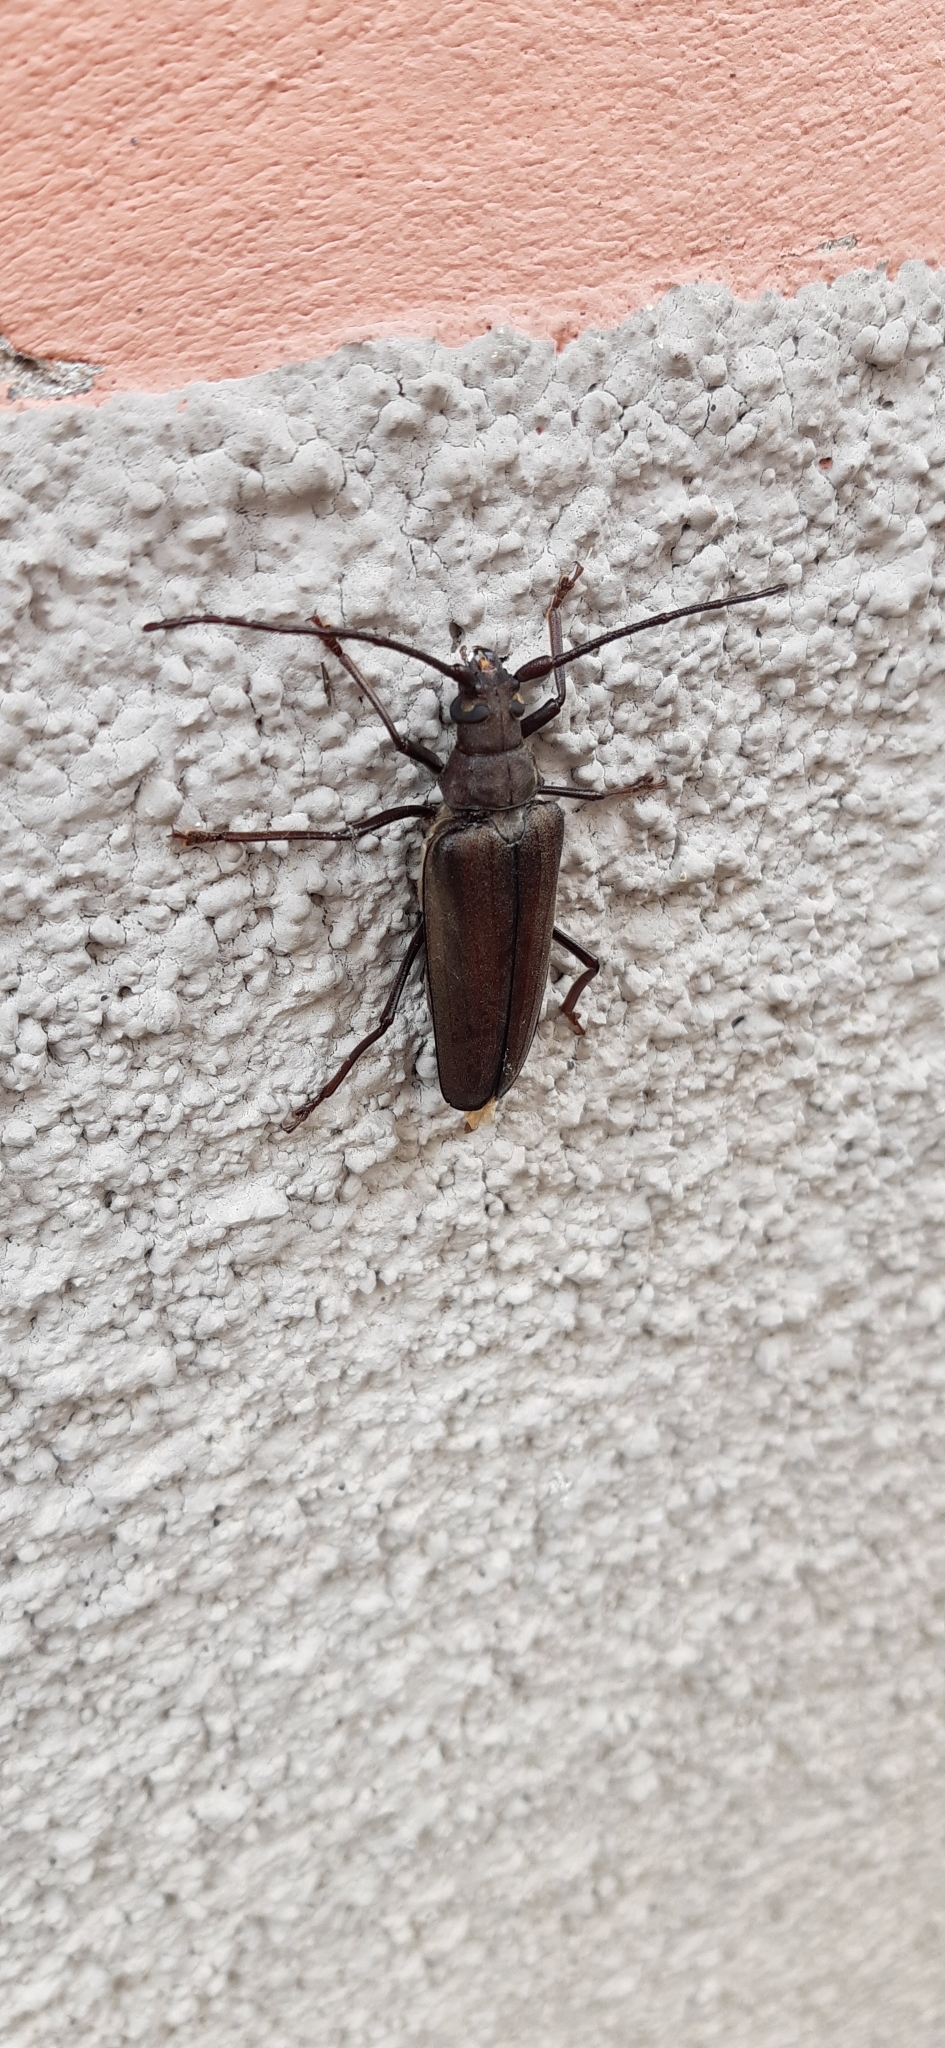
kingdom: Animalia
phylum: Arthropoda
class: Insecta
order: Coleoptera
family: Cerambycidae
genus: Aegosoma
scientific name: Aegosoma scabricorne
